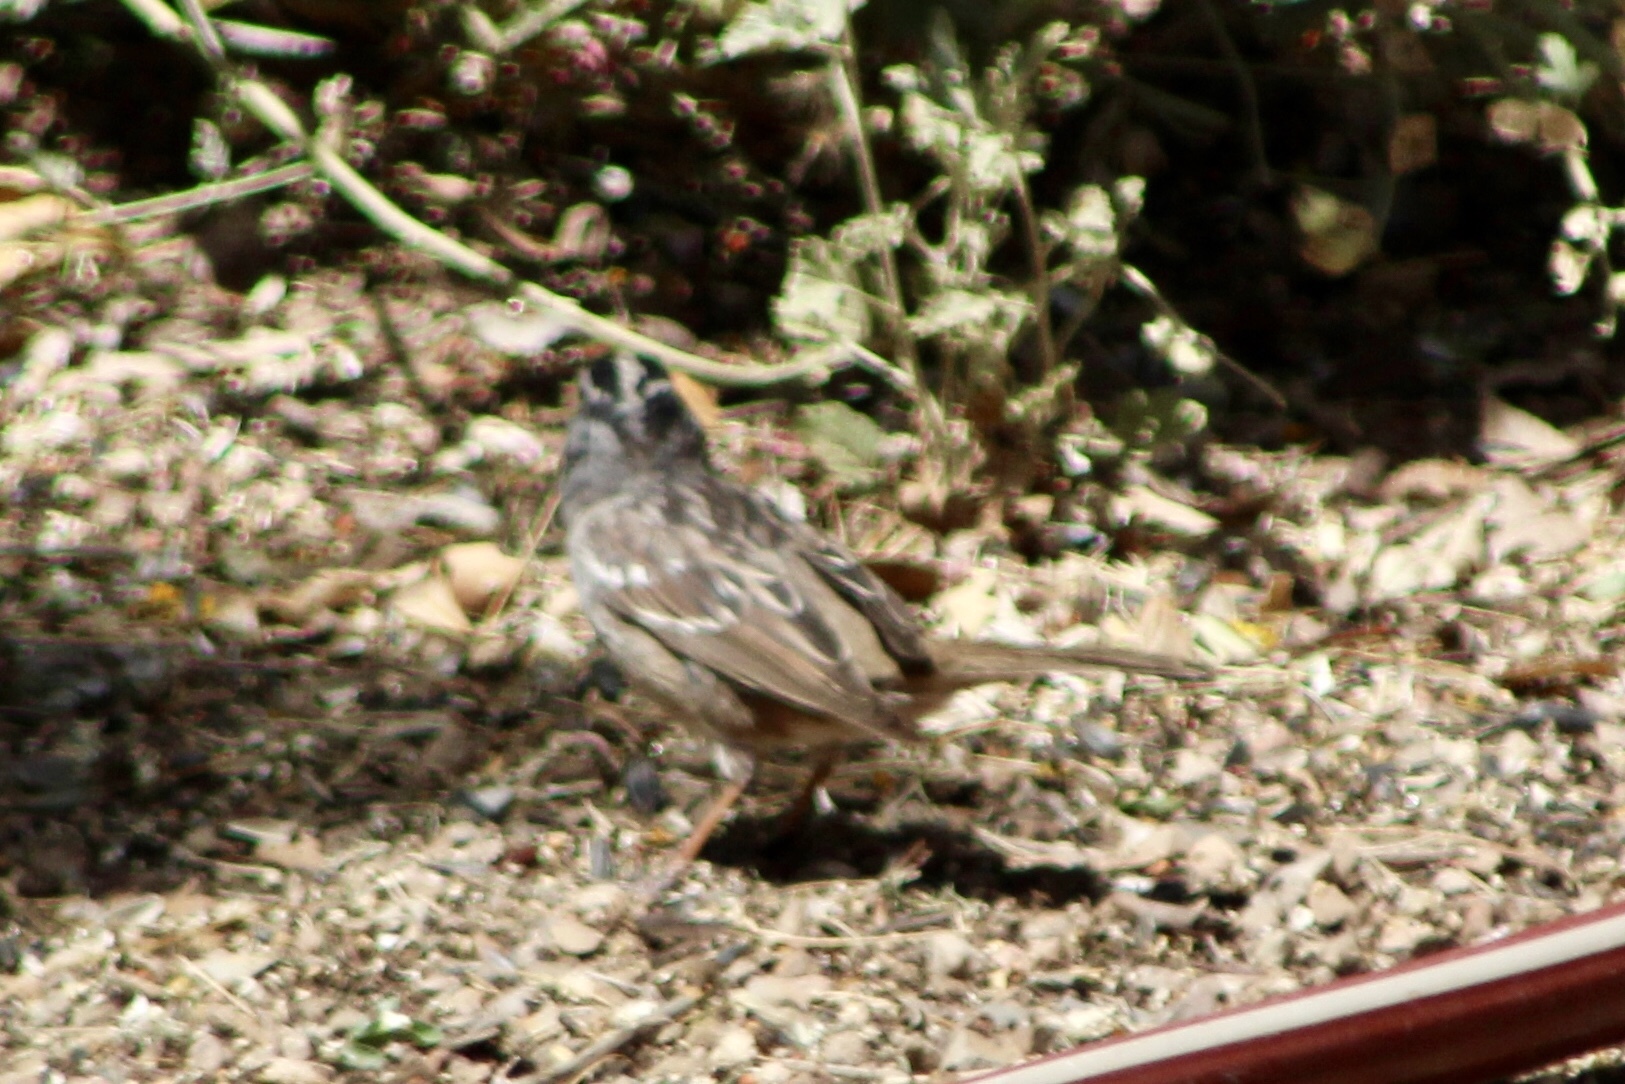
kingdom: Animalia
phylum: Chordata
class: Aves
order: Passeriformes
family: Passerellidae
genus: Zonotrichia
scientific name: Zonotrichia leucophrys
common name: White-crowned sparrow
